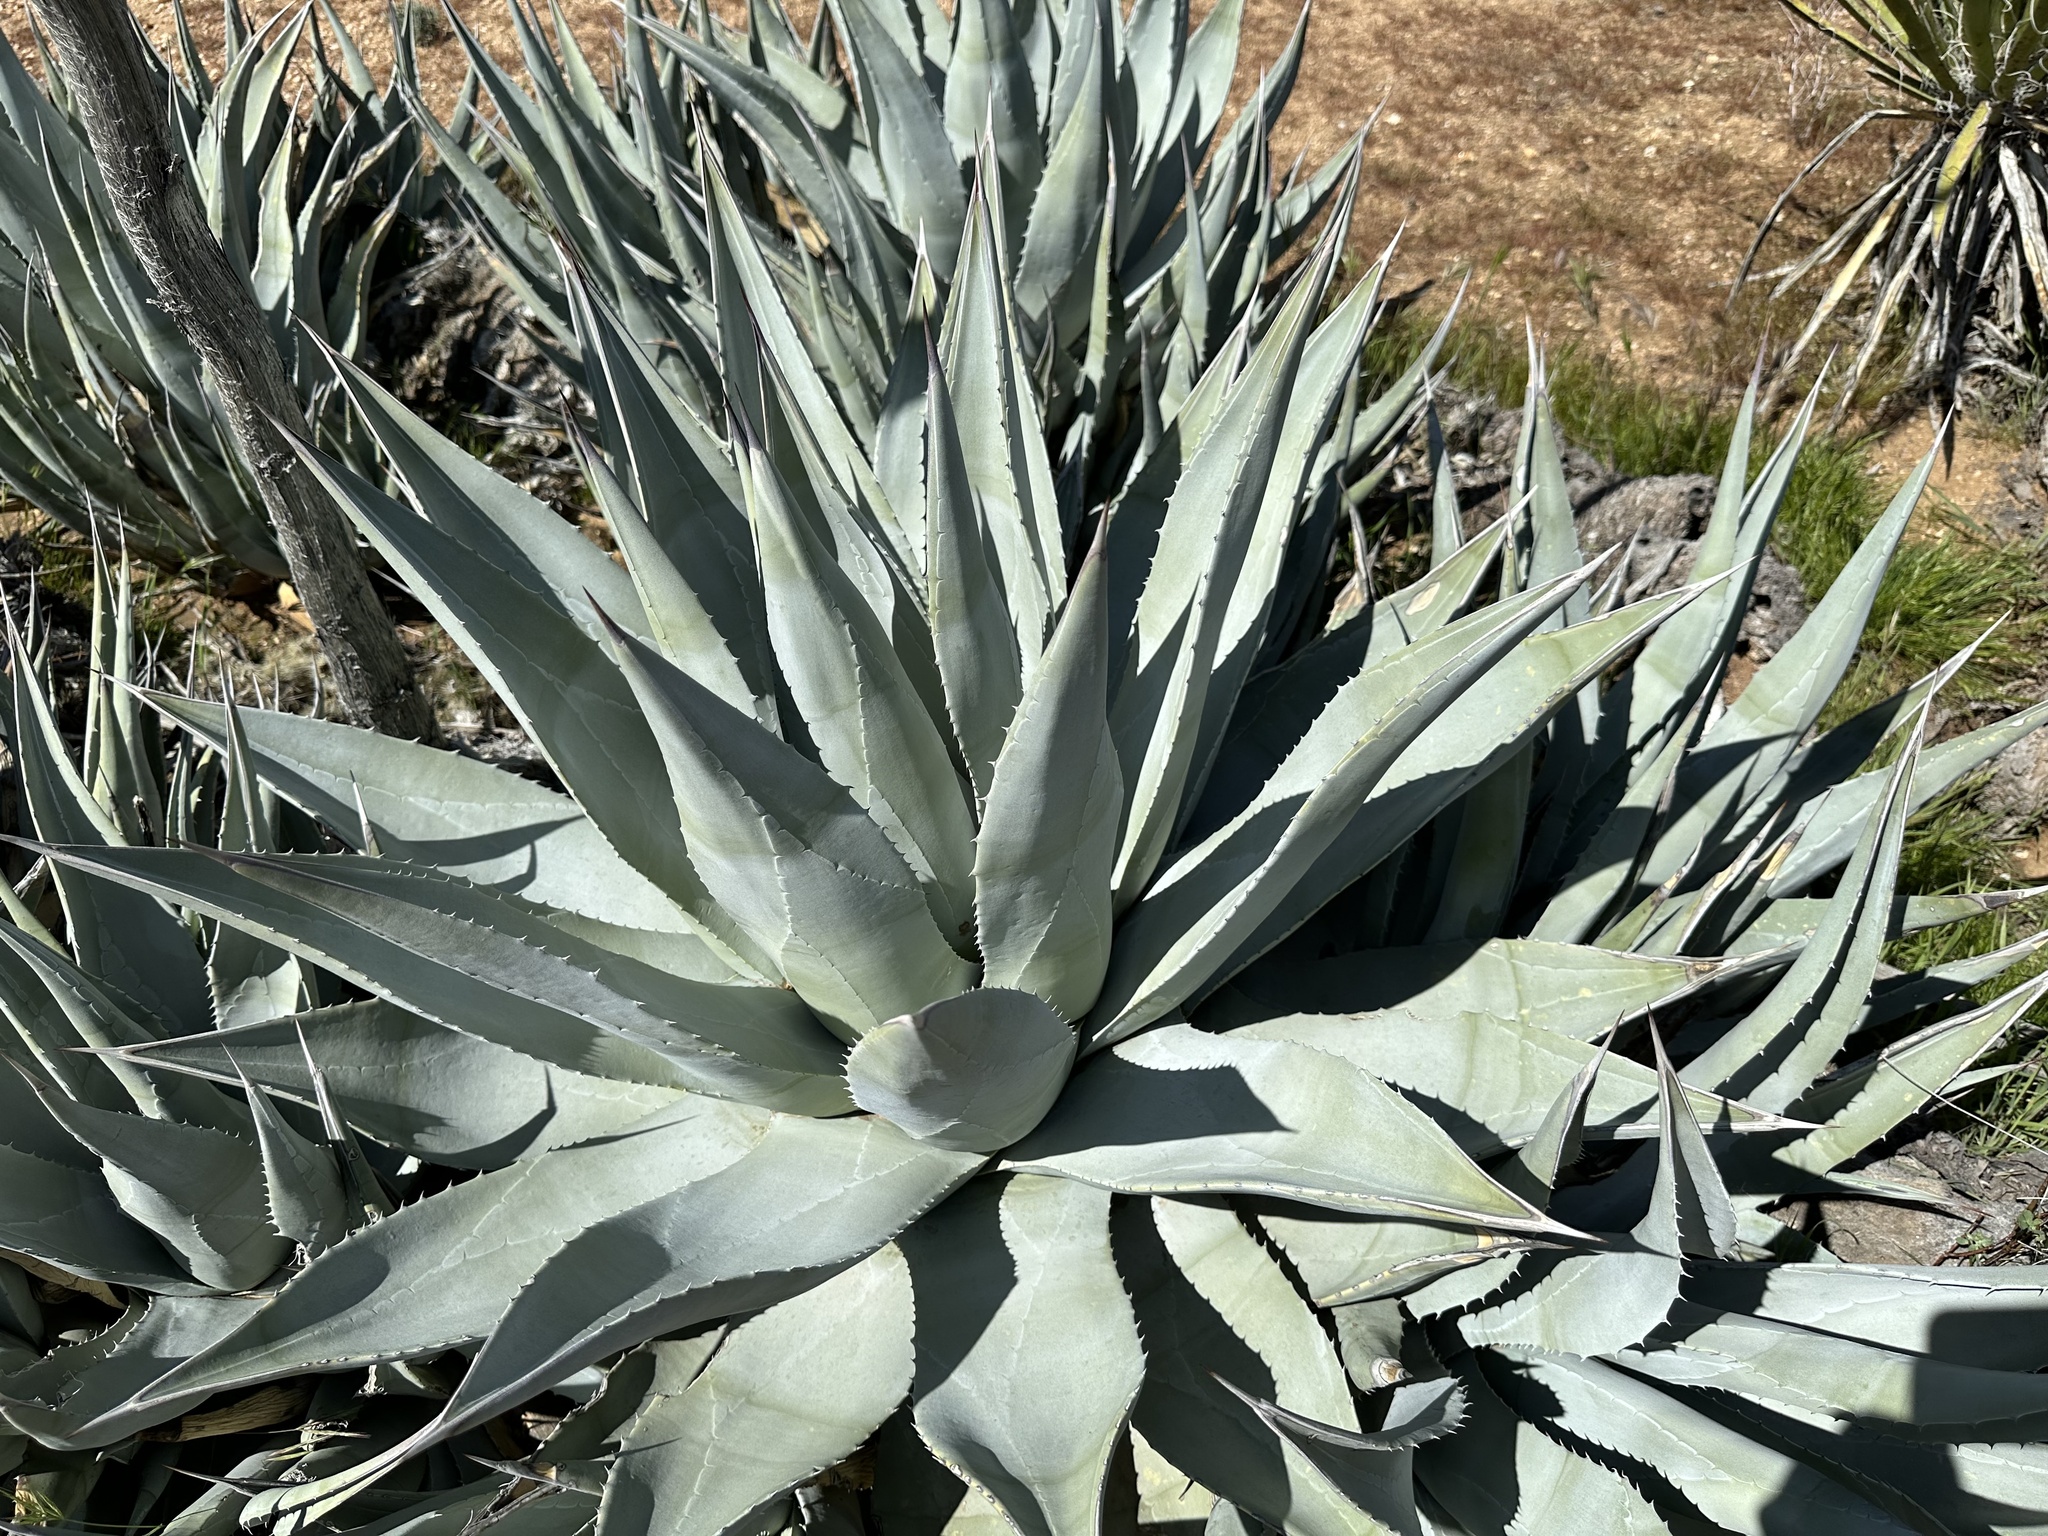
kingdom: Plantae
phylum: Tracheophyta
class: Liliopsida
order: Asparagales
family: Asparagaceae
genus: Agave
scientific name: Agave deserti
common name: Desert agave
